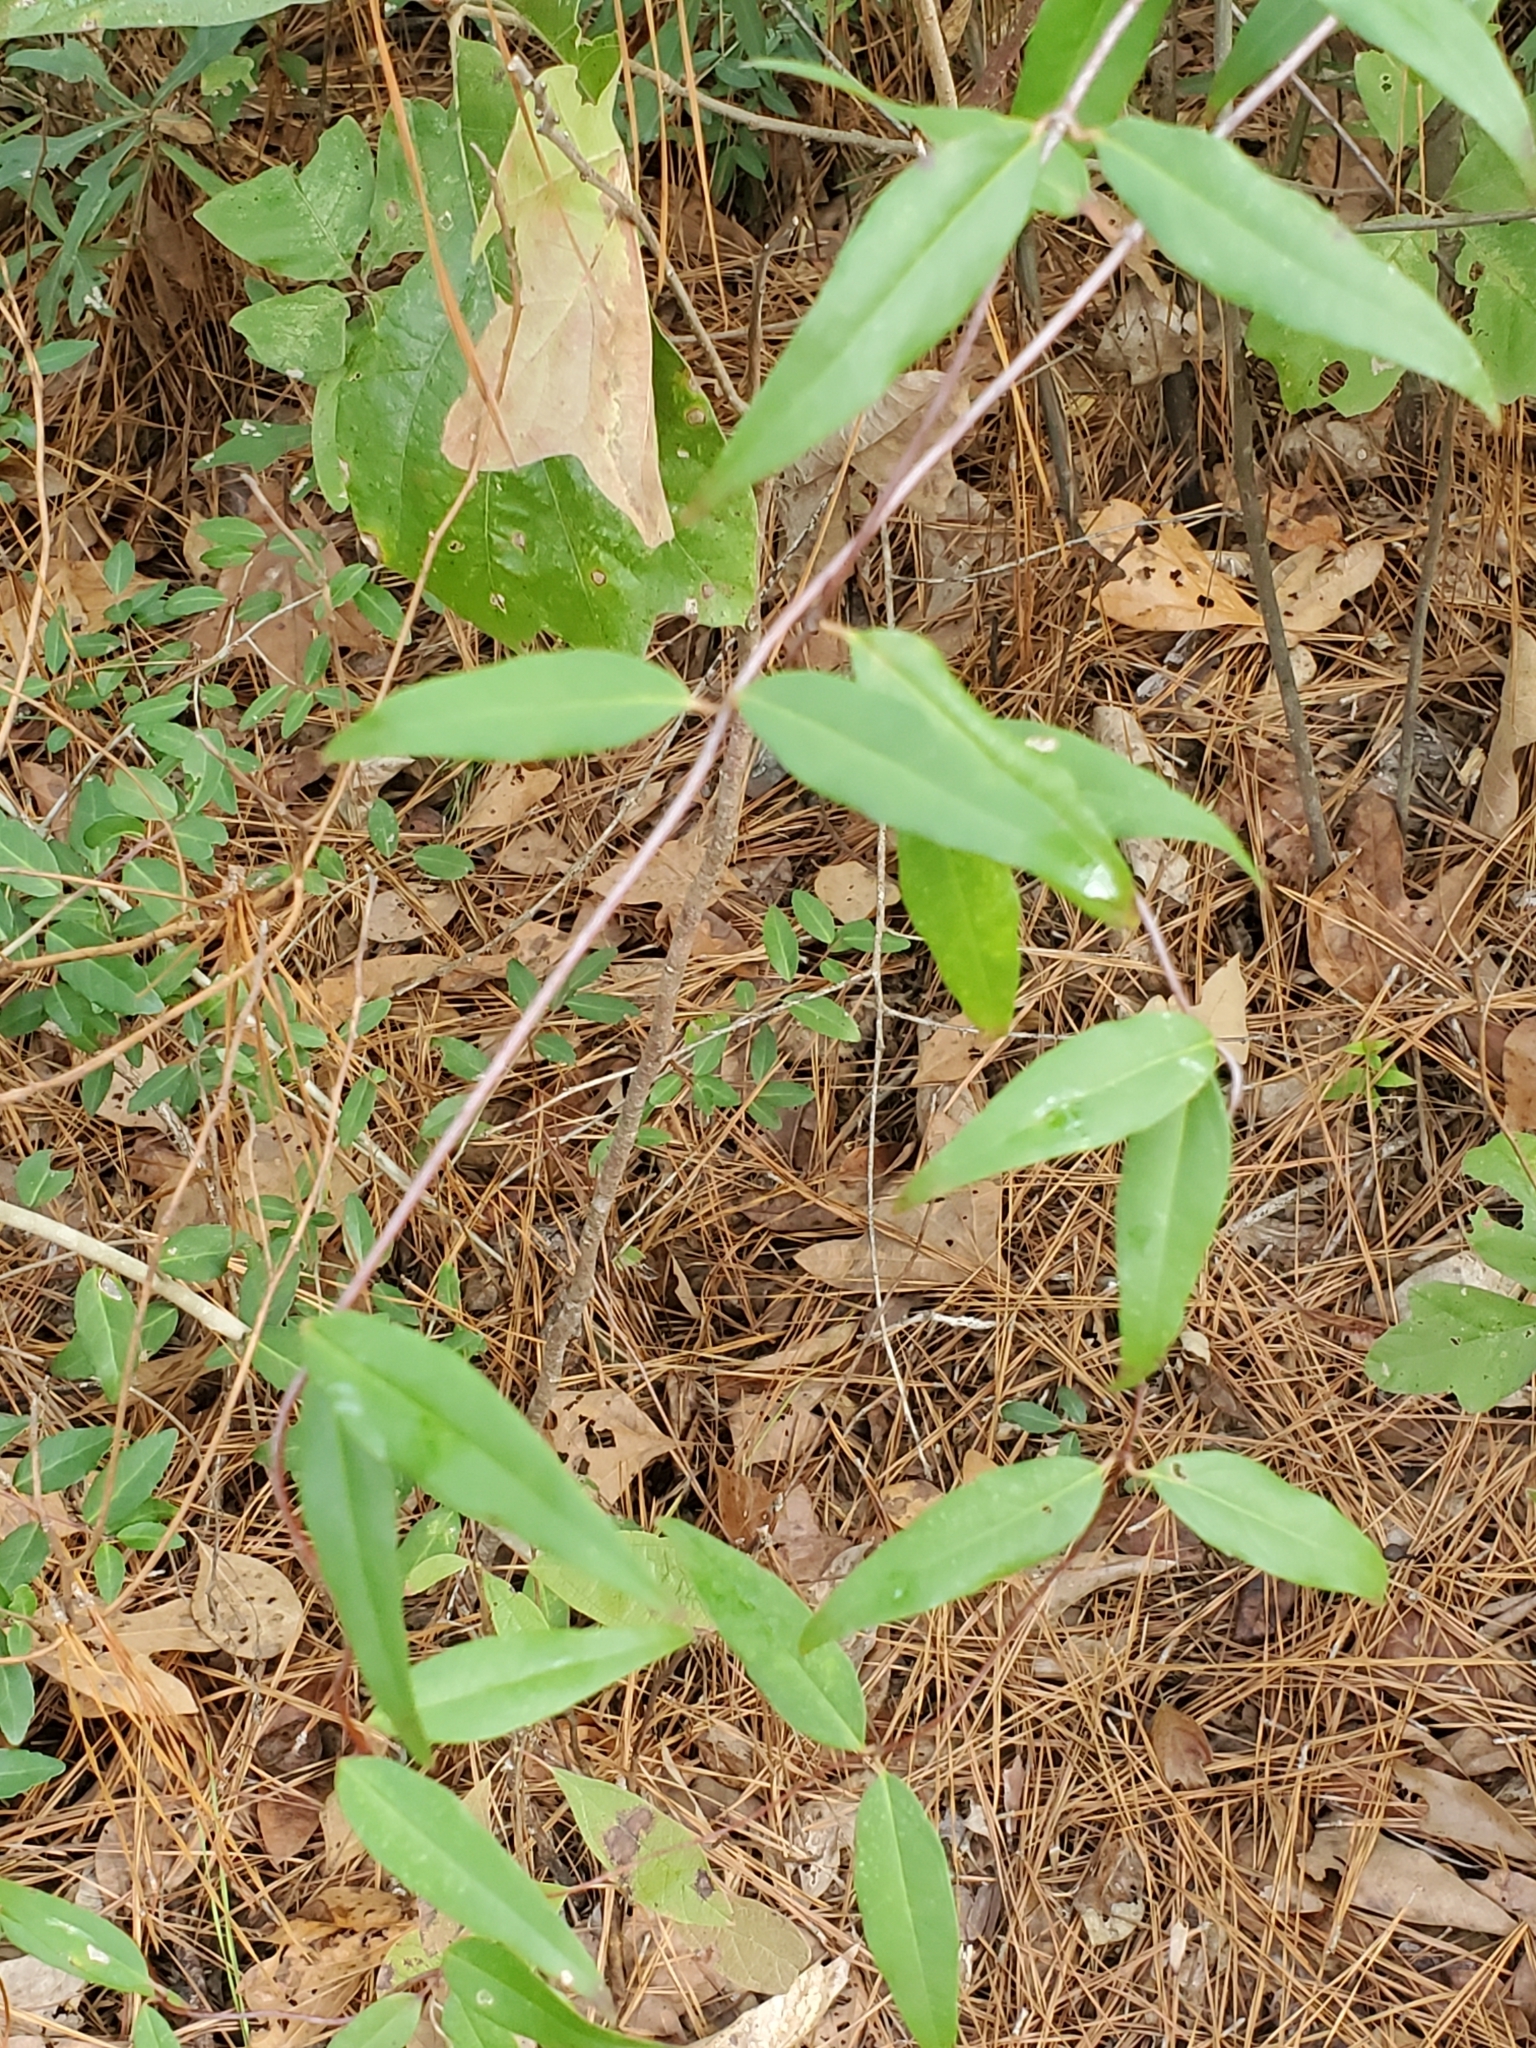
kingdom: Plantae
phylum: Tracheophyta
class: Magnoliopsida
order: Gentianales
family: Gelsemiaceae
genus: Gelsemium
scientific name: Gelsemium sempervirens
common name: Carolina-jasmine
